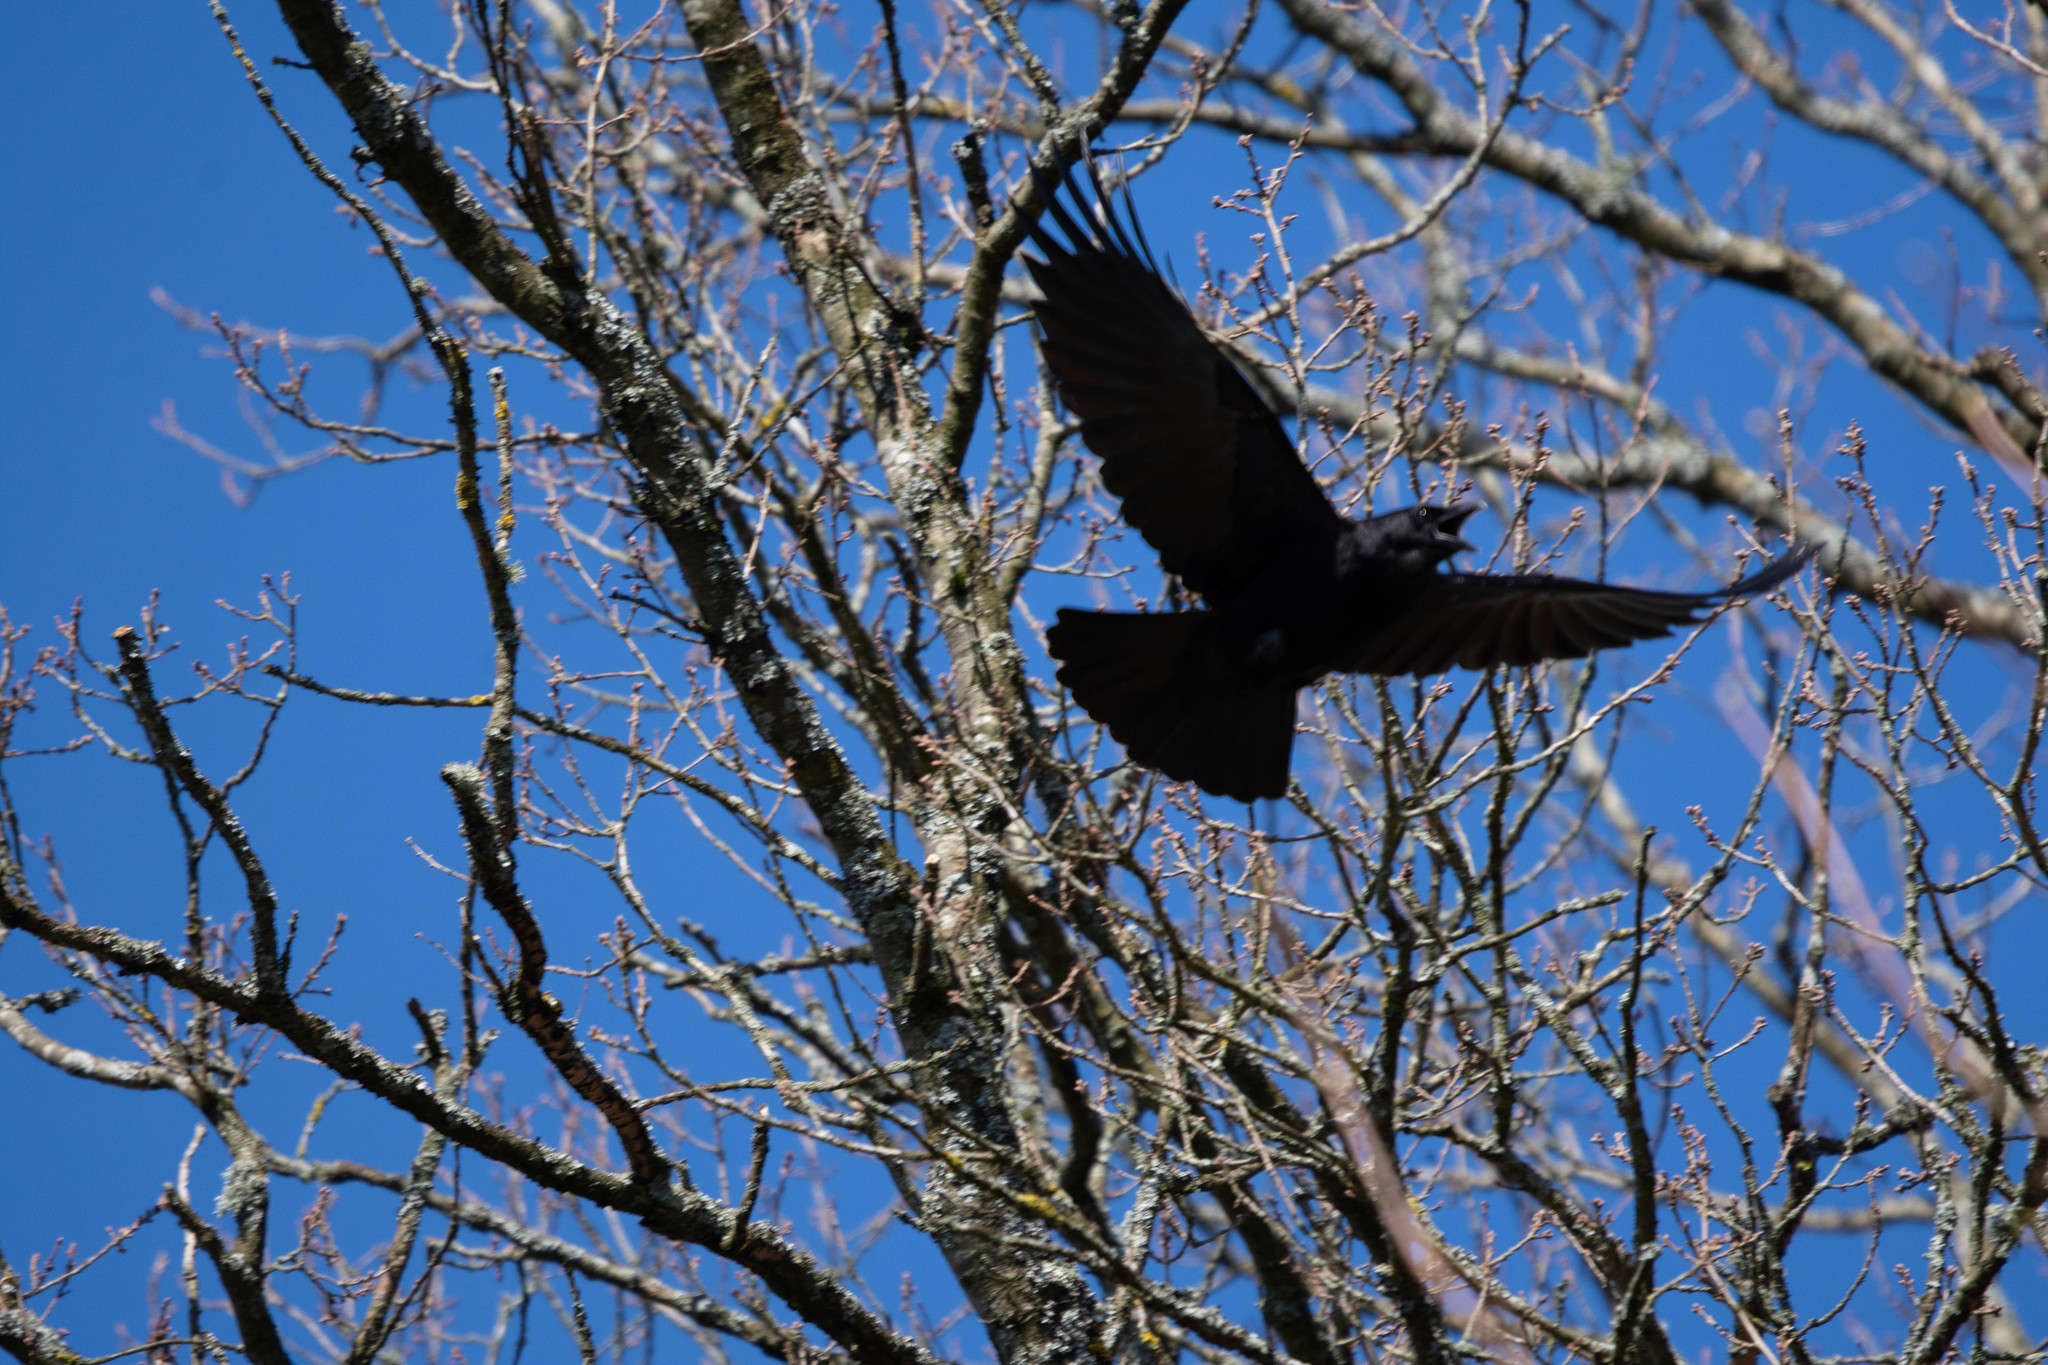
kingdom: Animalia
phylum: Chordata
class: Aves
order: Passeriformes
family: Corvidae
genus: Corvus
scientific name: Corvus corone
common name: Carrion crow
